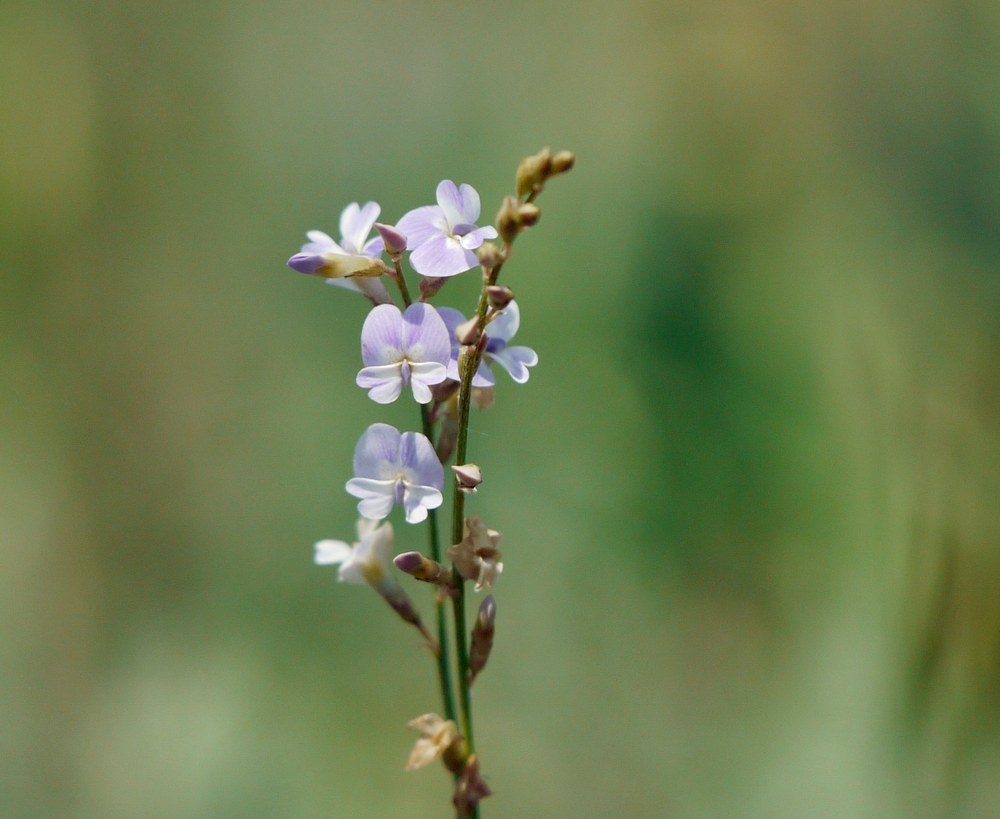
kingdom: Plantae
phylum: Tracheophyta
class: Magnoliopsida
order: Fabales
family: Fabaceae
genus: Astragalus
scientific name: Astragalus austriacus
